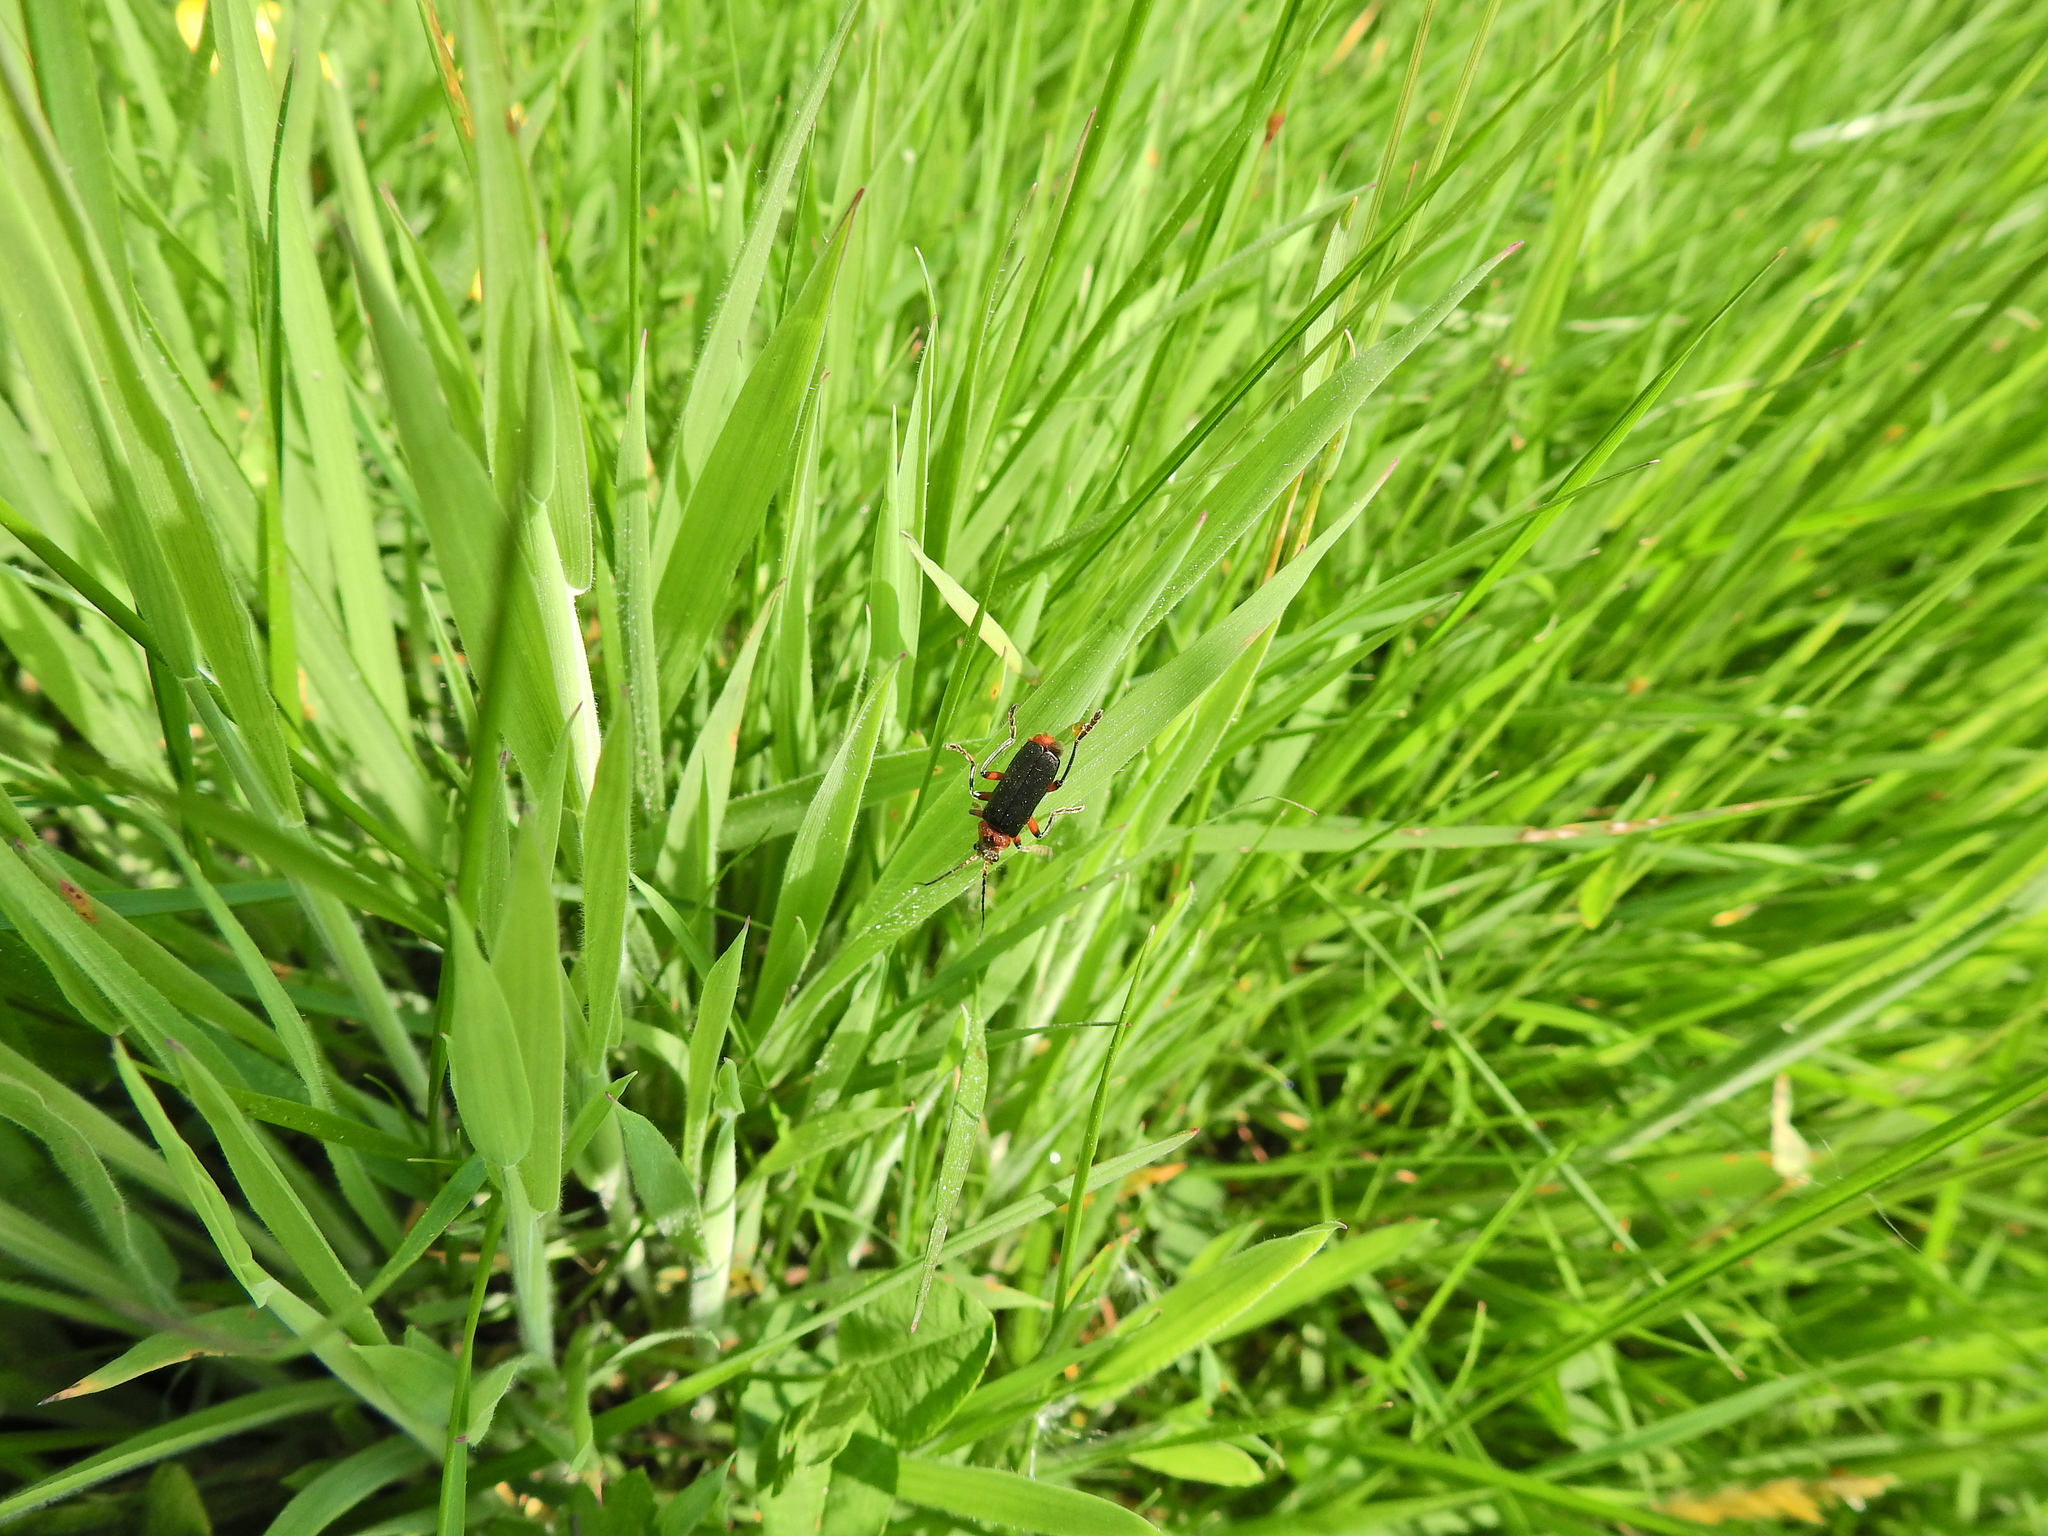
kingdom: Animalia
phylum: Arthropoda
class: Insecta
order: Coleoptera
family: Cantharidae
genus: Cantharis
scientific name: Cantharis rustica
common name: Soldier beetle
